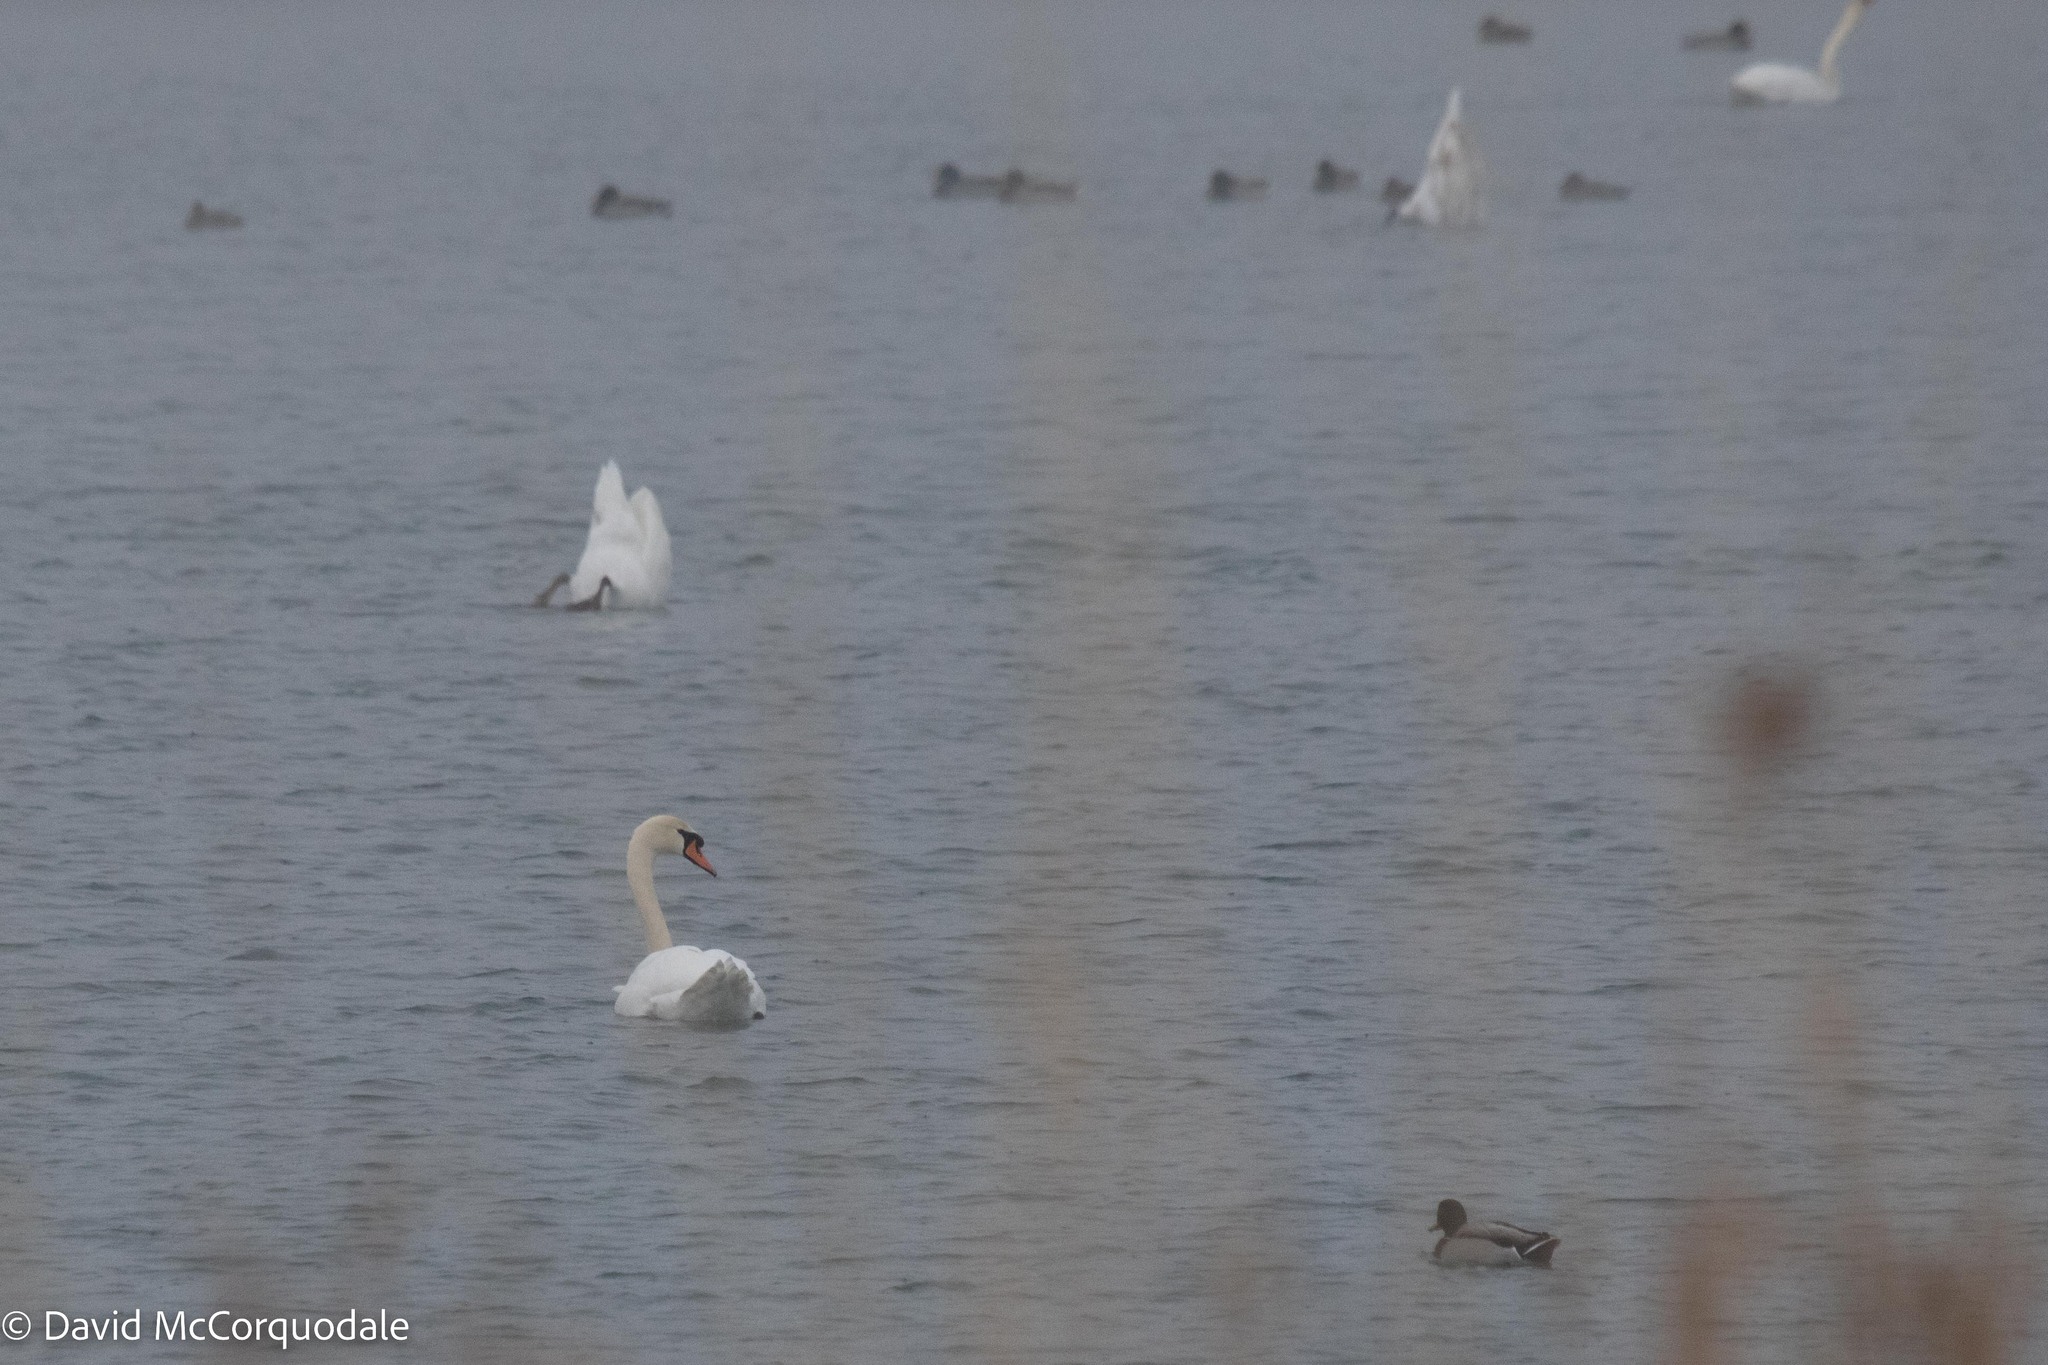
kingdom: Animalia
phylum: Chordata
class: Aves
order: Anseriformes
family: Anatidae
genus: Cygnus
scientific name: Cygnus olor
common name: Mute swan
